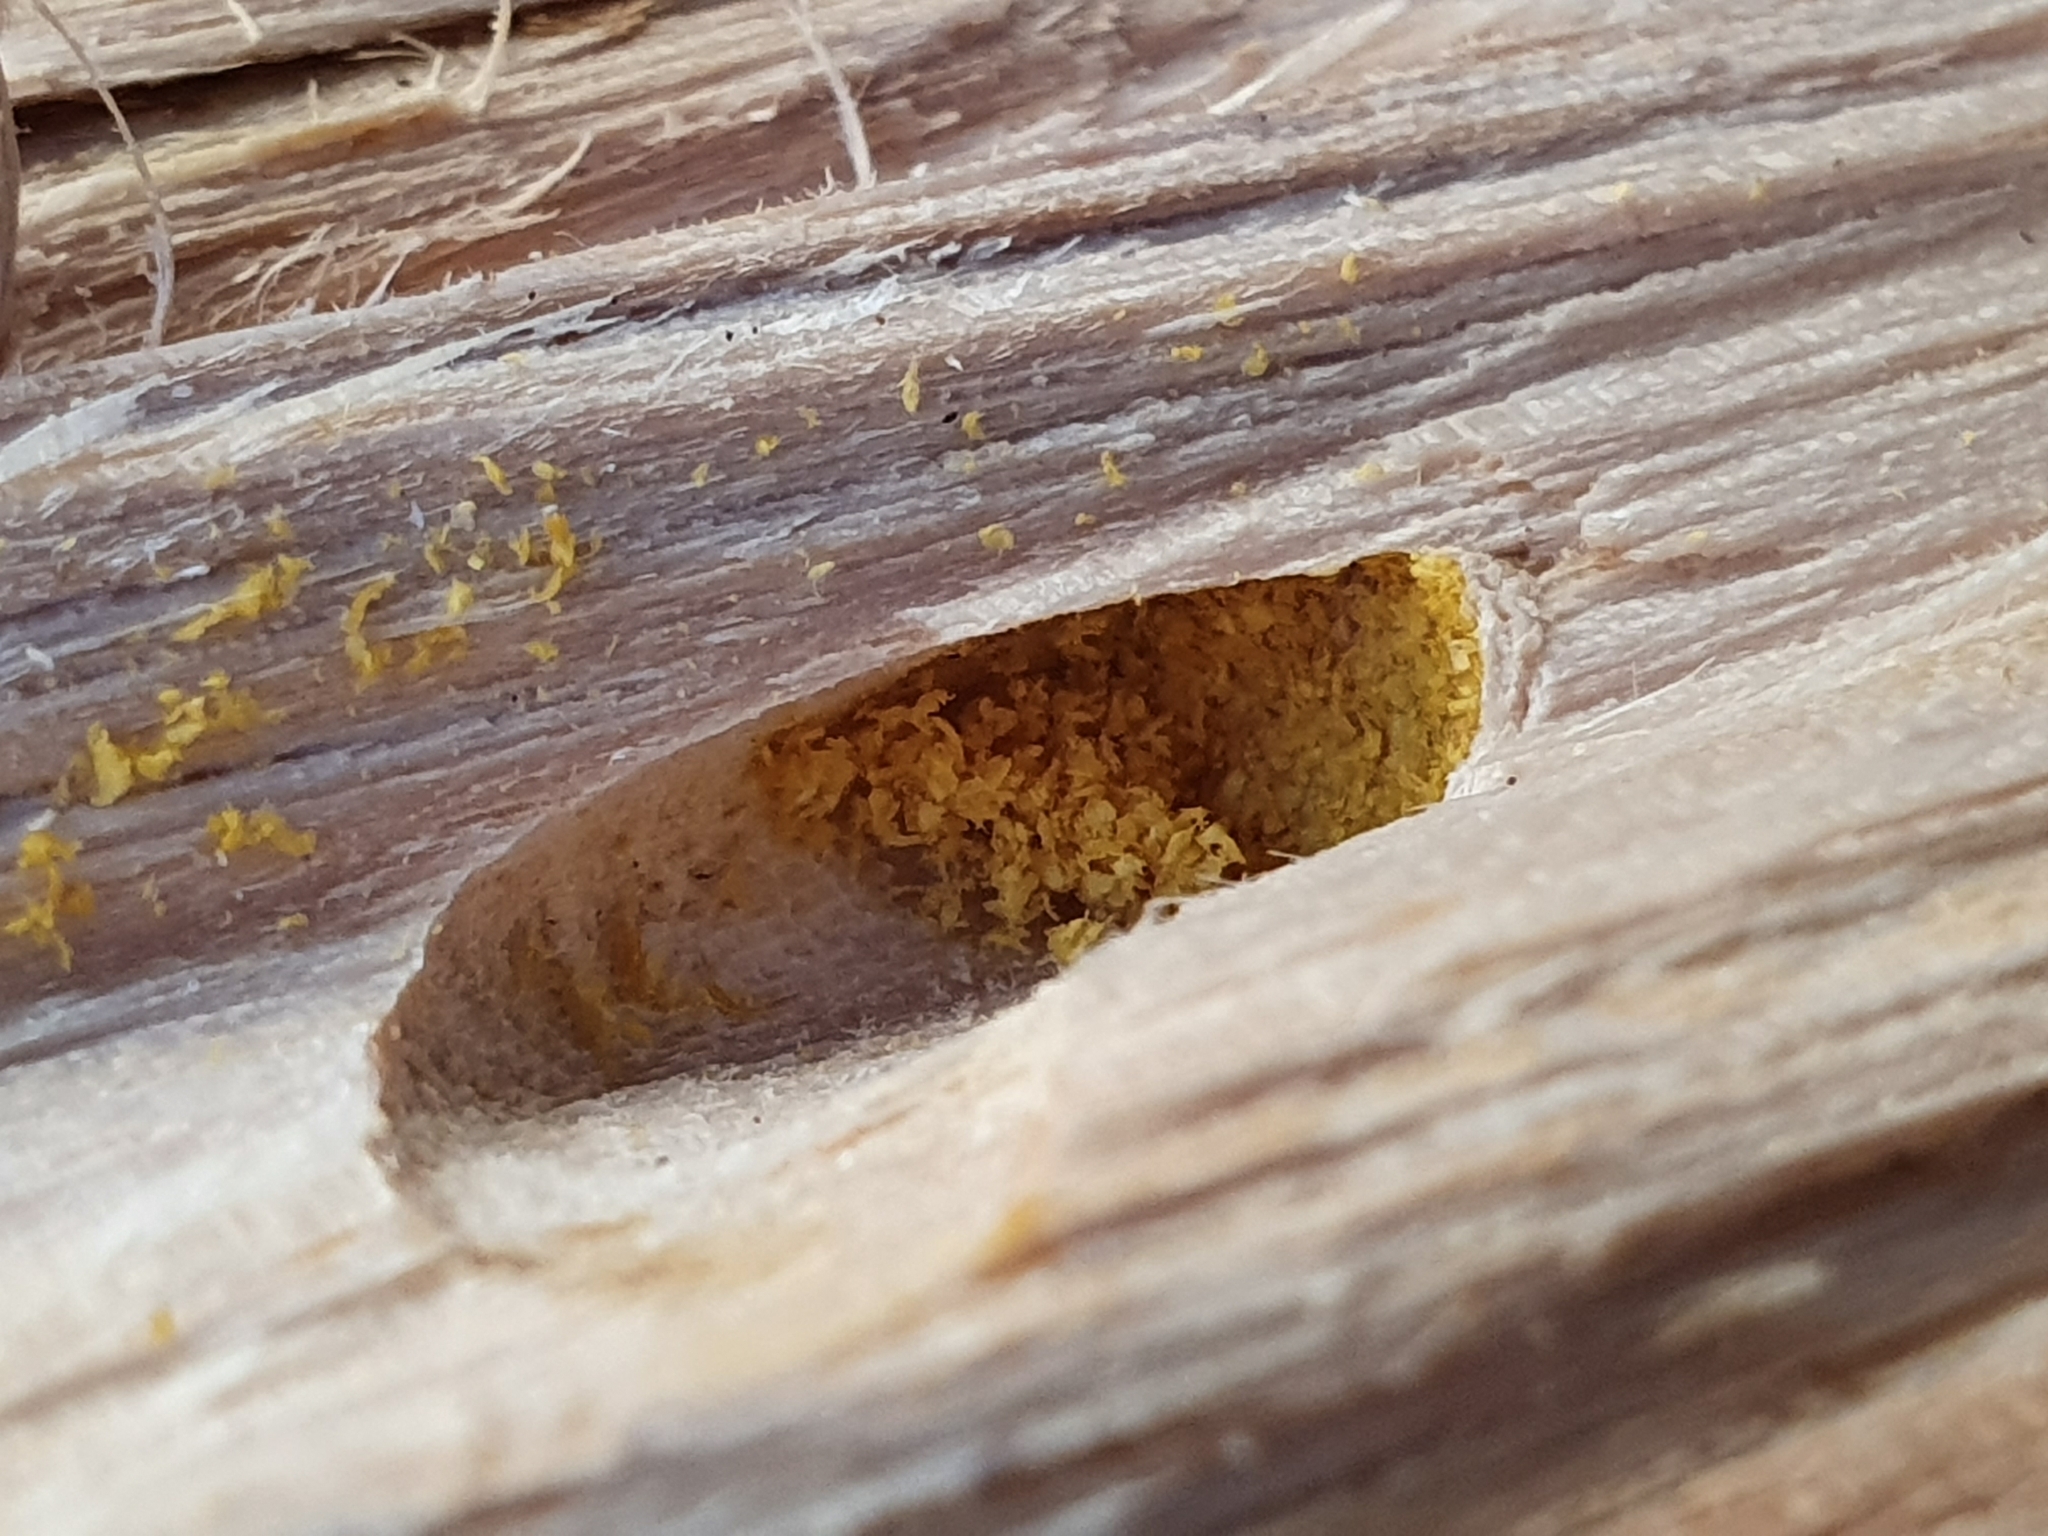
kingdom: Animalia
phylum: Arthropoda
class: Insecta
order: Coleoptera
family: Cerambycidae
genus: Tessaromma
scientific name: Tessaromma undatum
